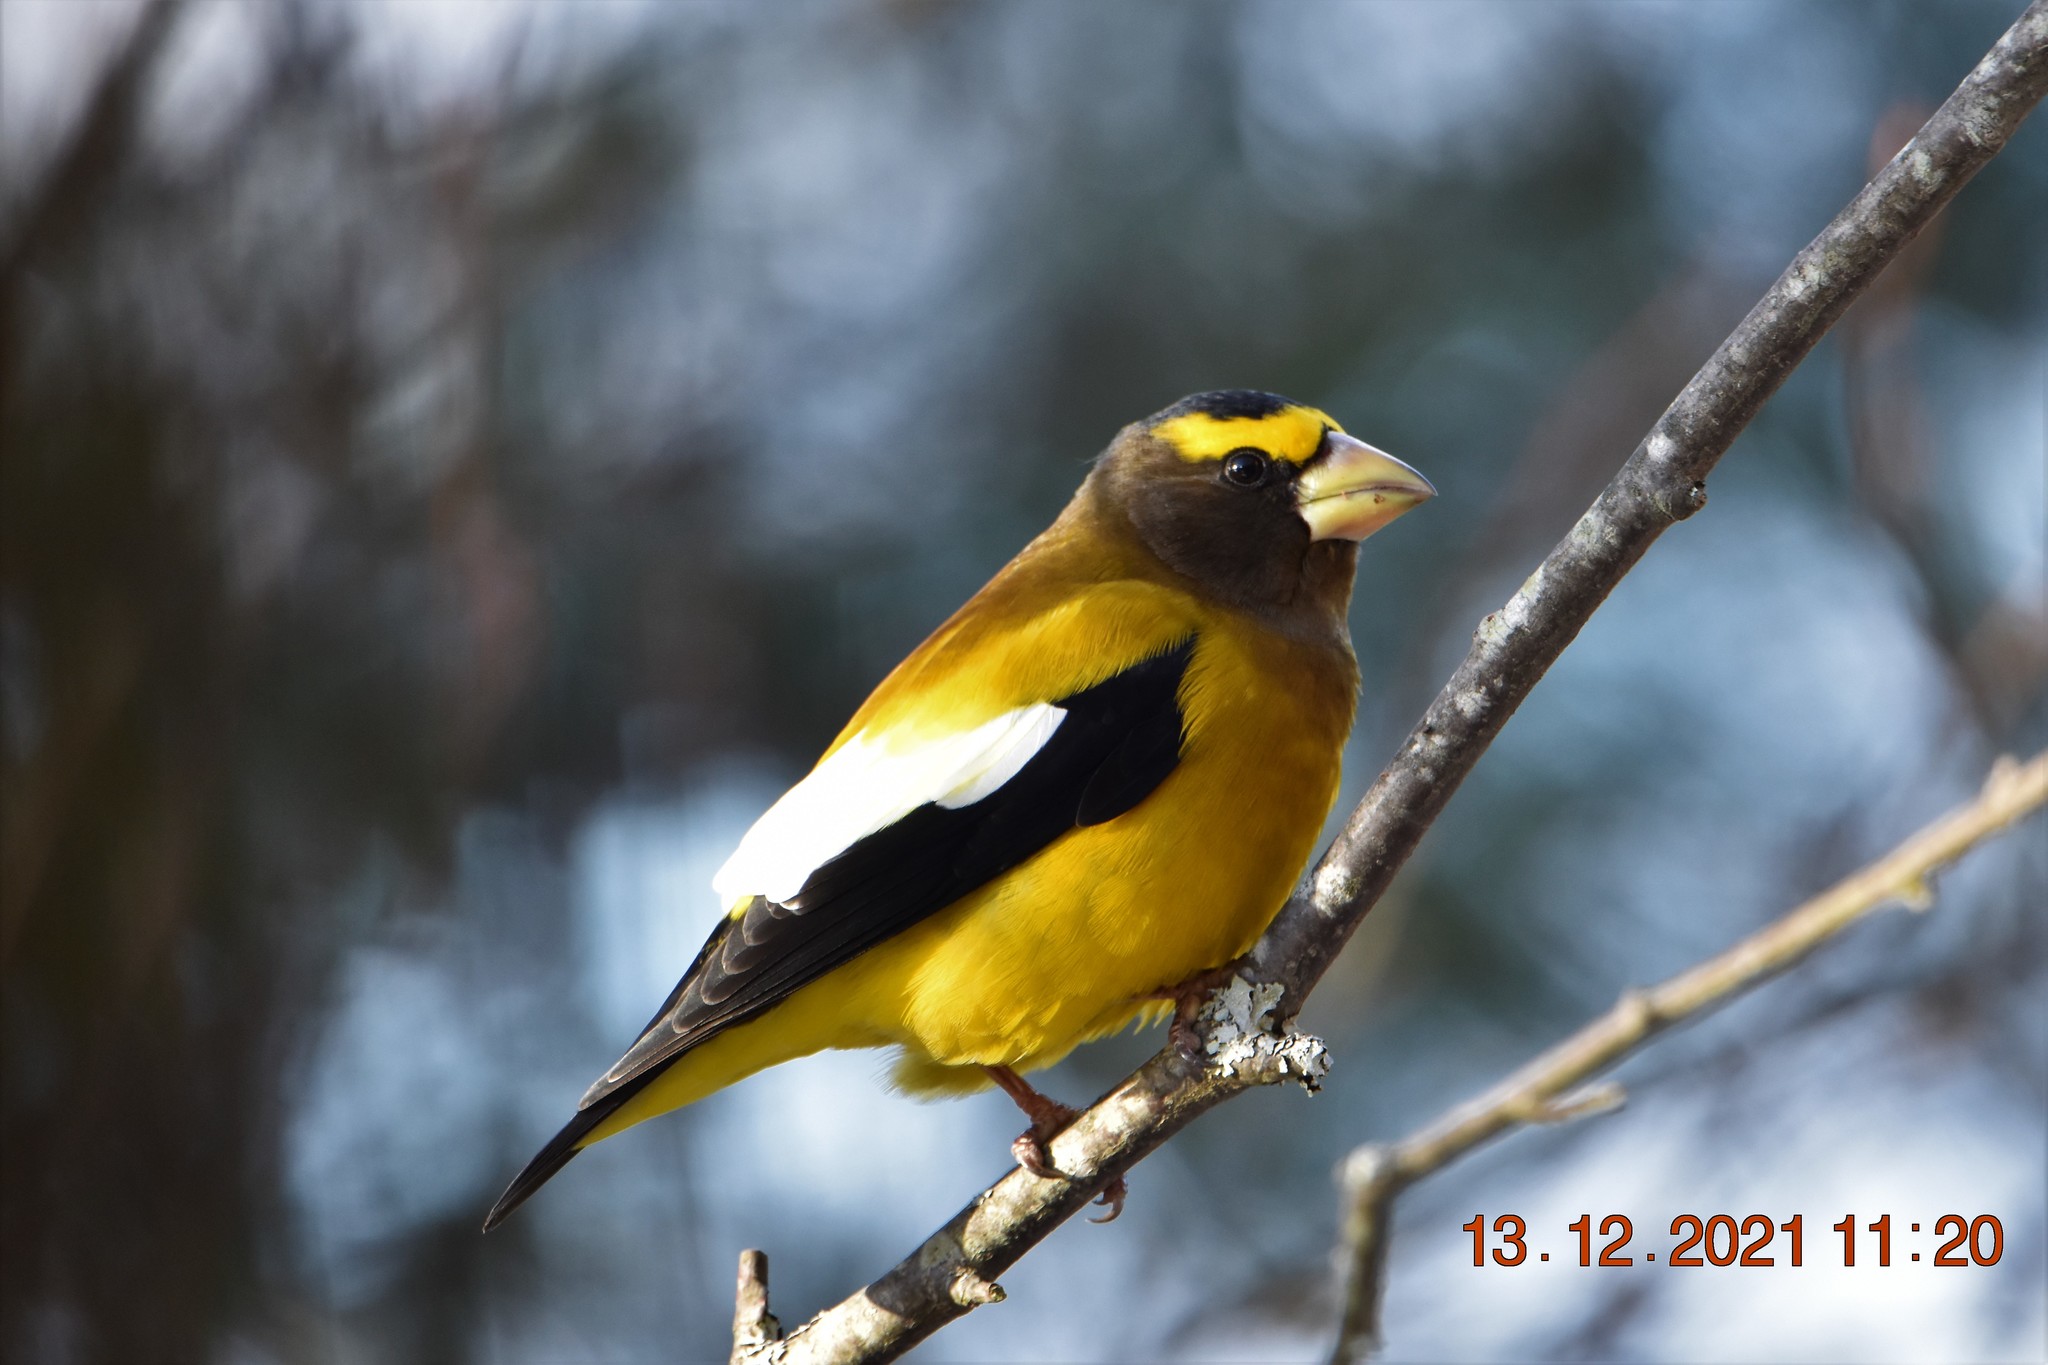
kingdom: Animalia
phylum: Chordata
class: Aves
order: Passeriformes
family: Fringillidae
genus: Hesperiphona
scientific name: Hesperiphona vespertina
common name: Evening grosbeak
